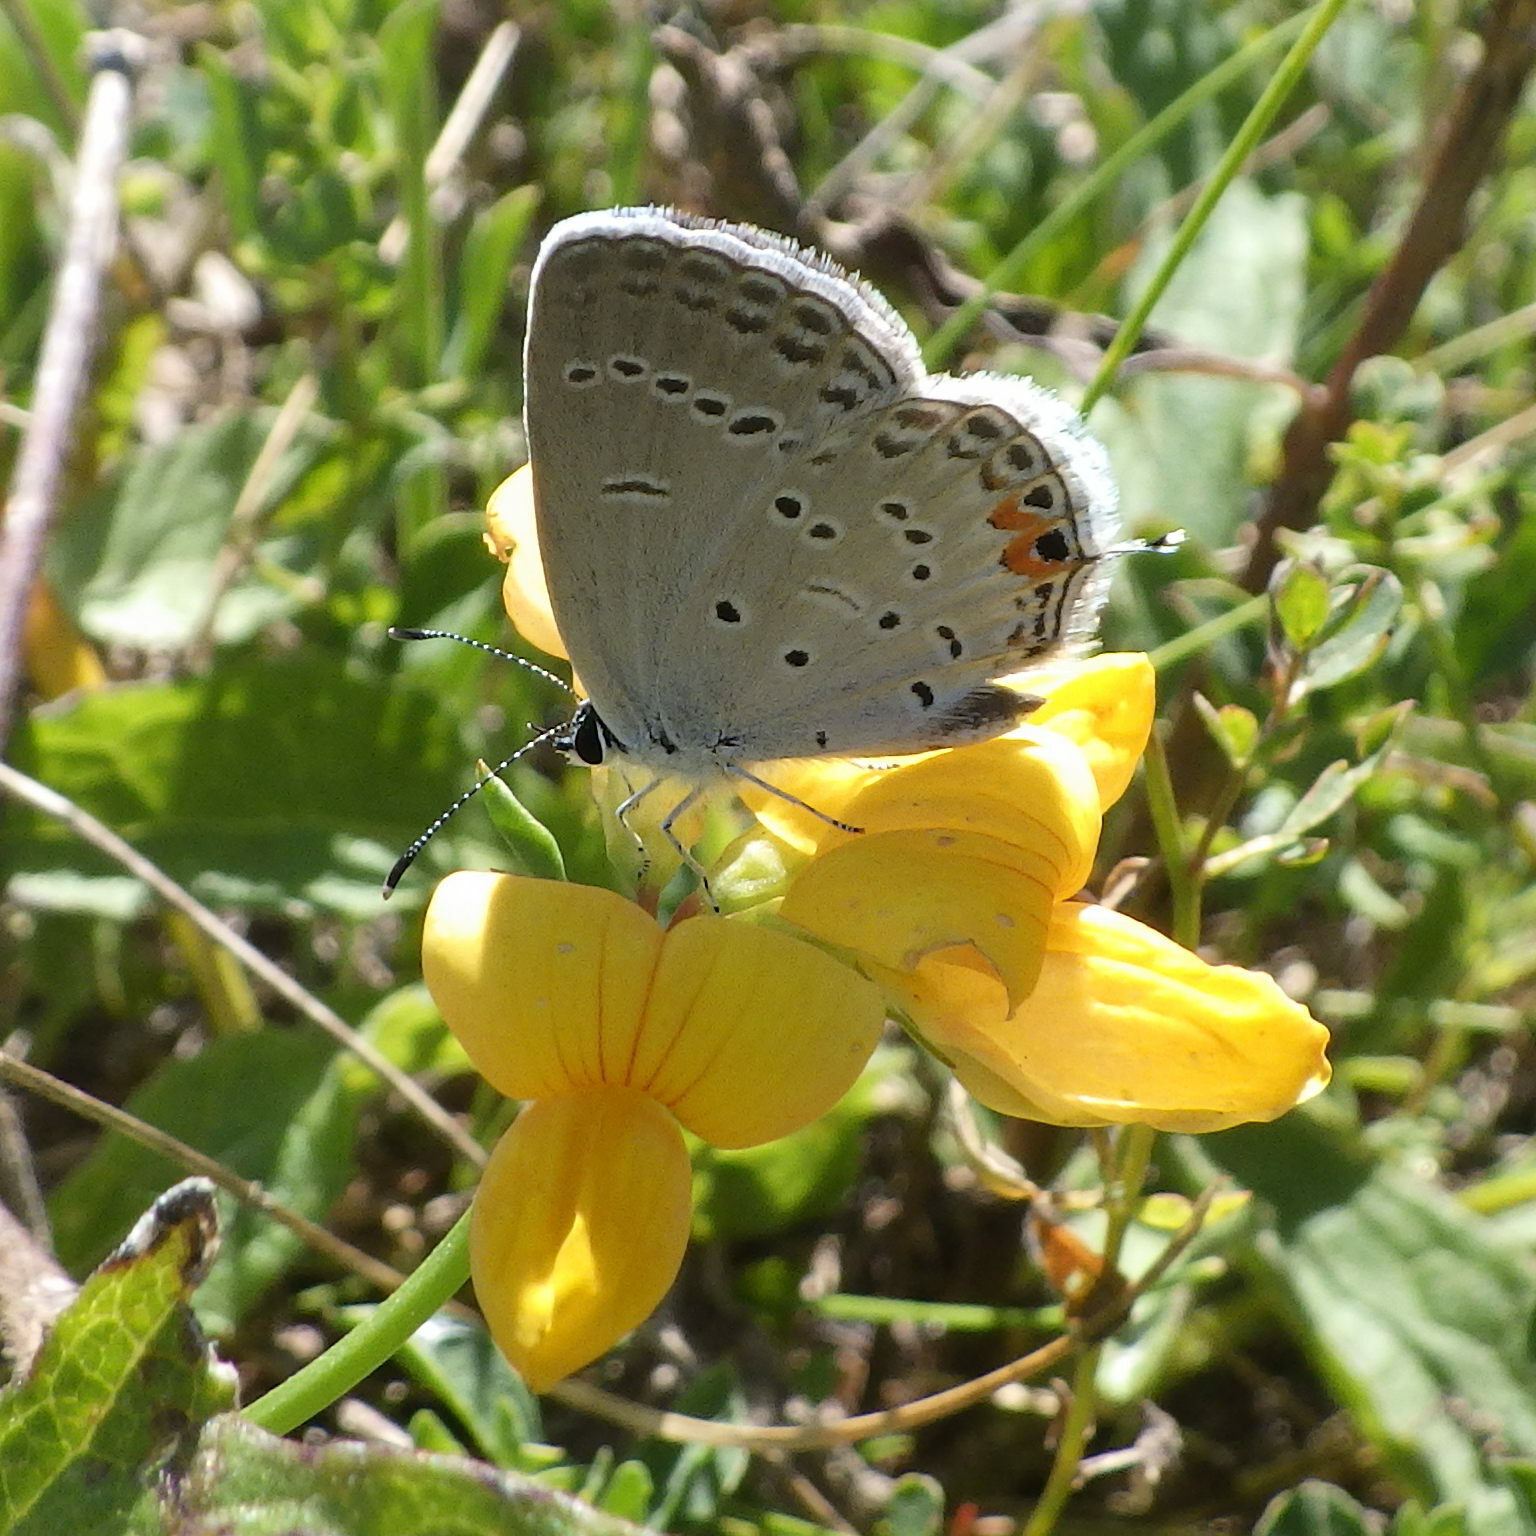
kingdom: Animalia
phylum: Arthropoda
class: Insecta
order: Lepidoptera
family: Lycaenidae
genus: Elkalyce
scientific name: Elkalyce comyntas
